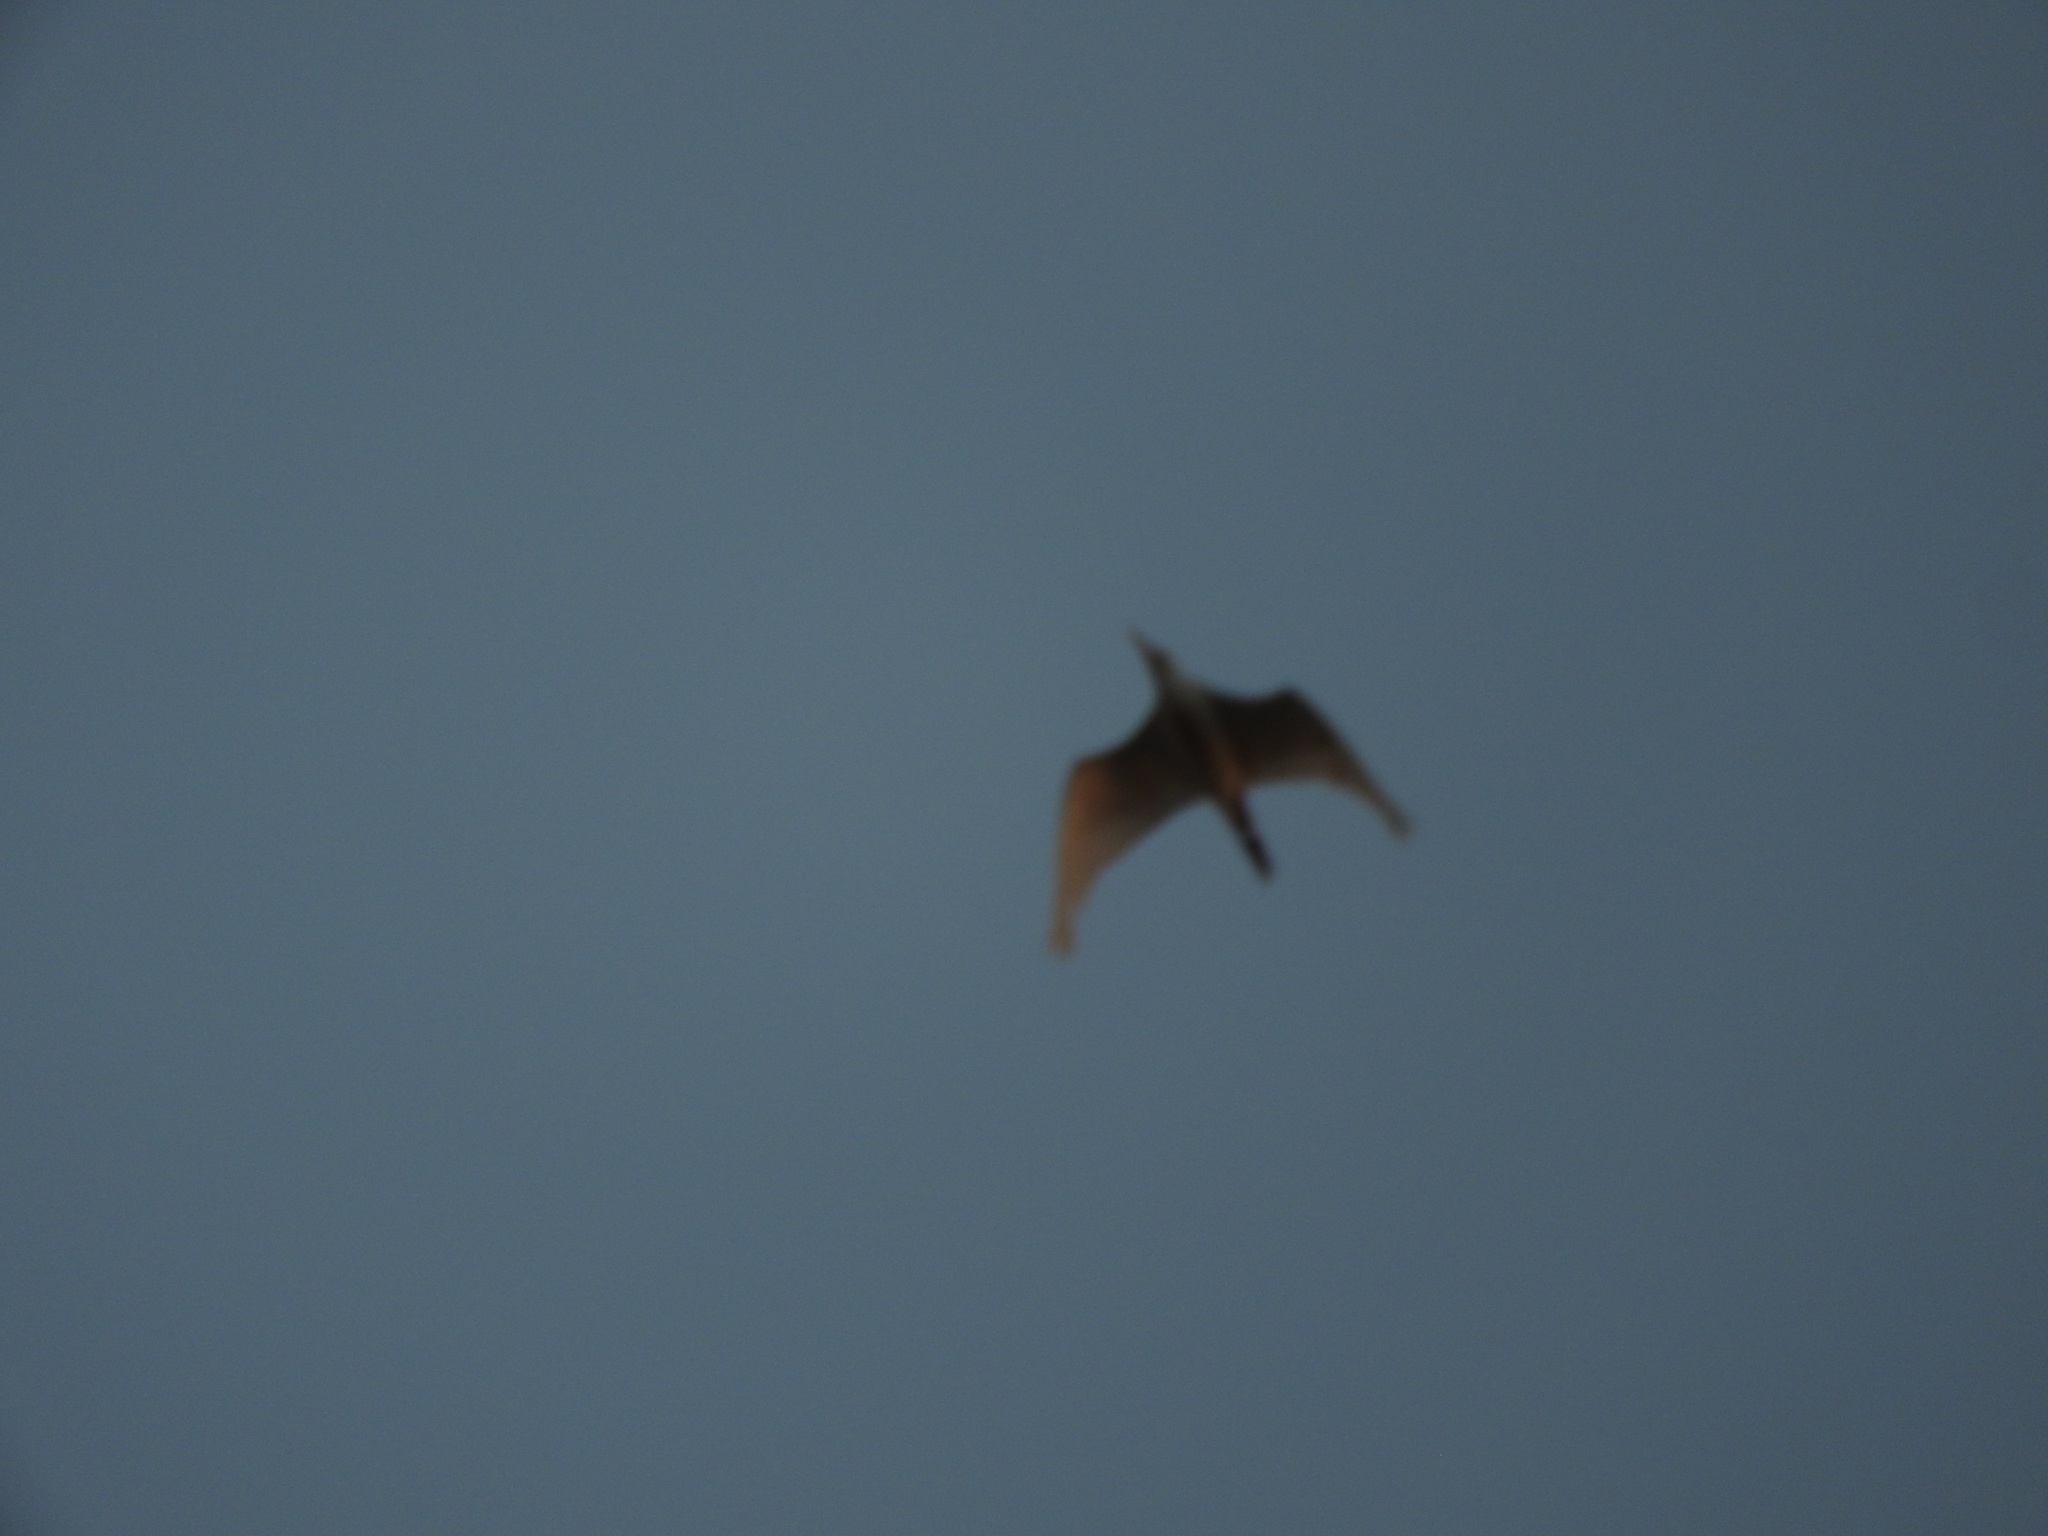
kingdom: Animalia
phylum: Chordata
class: Aves
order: Pelecaniformes
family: Ardeidae
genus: Bubulcus
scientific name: Bubulcus ibis
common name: Cattle egret
